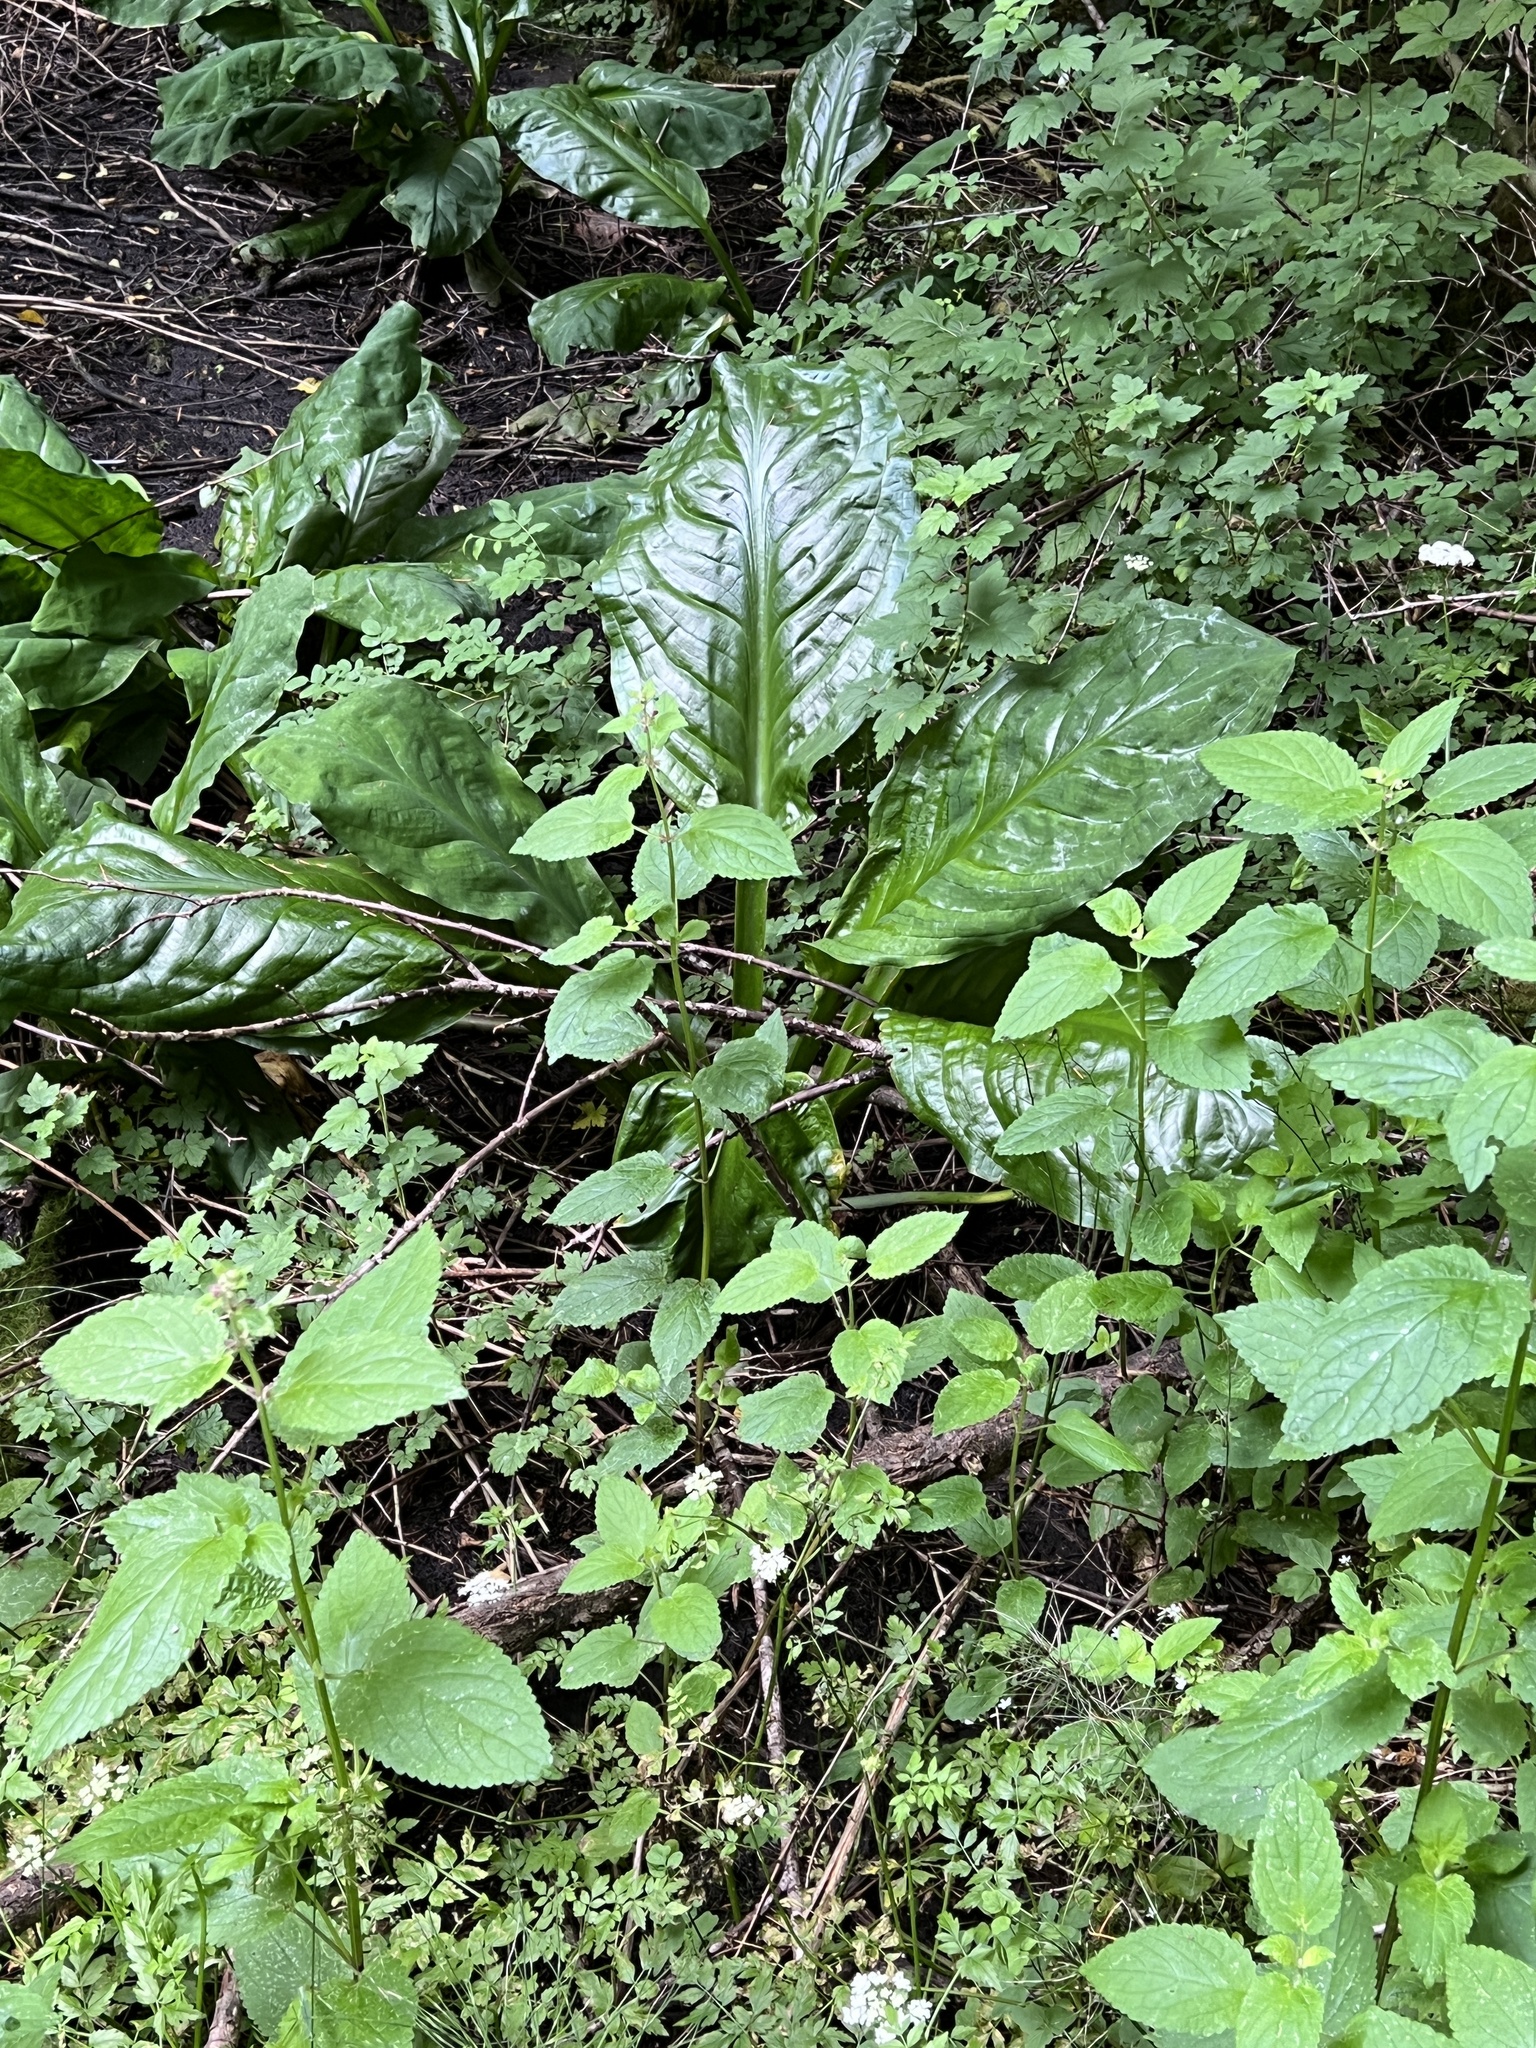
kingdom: Plantae
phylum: Tracheophyta
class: Liliopsida
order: Alismatales
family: Araceae
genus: Lysichiton
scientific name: Lysichiton americanus
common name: American skunk cabbage
